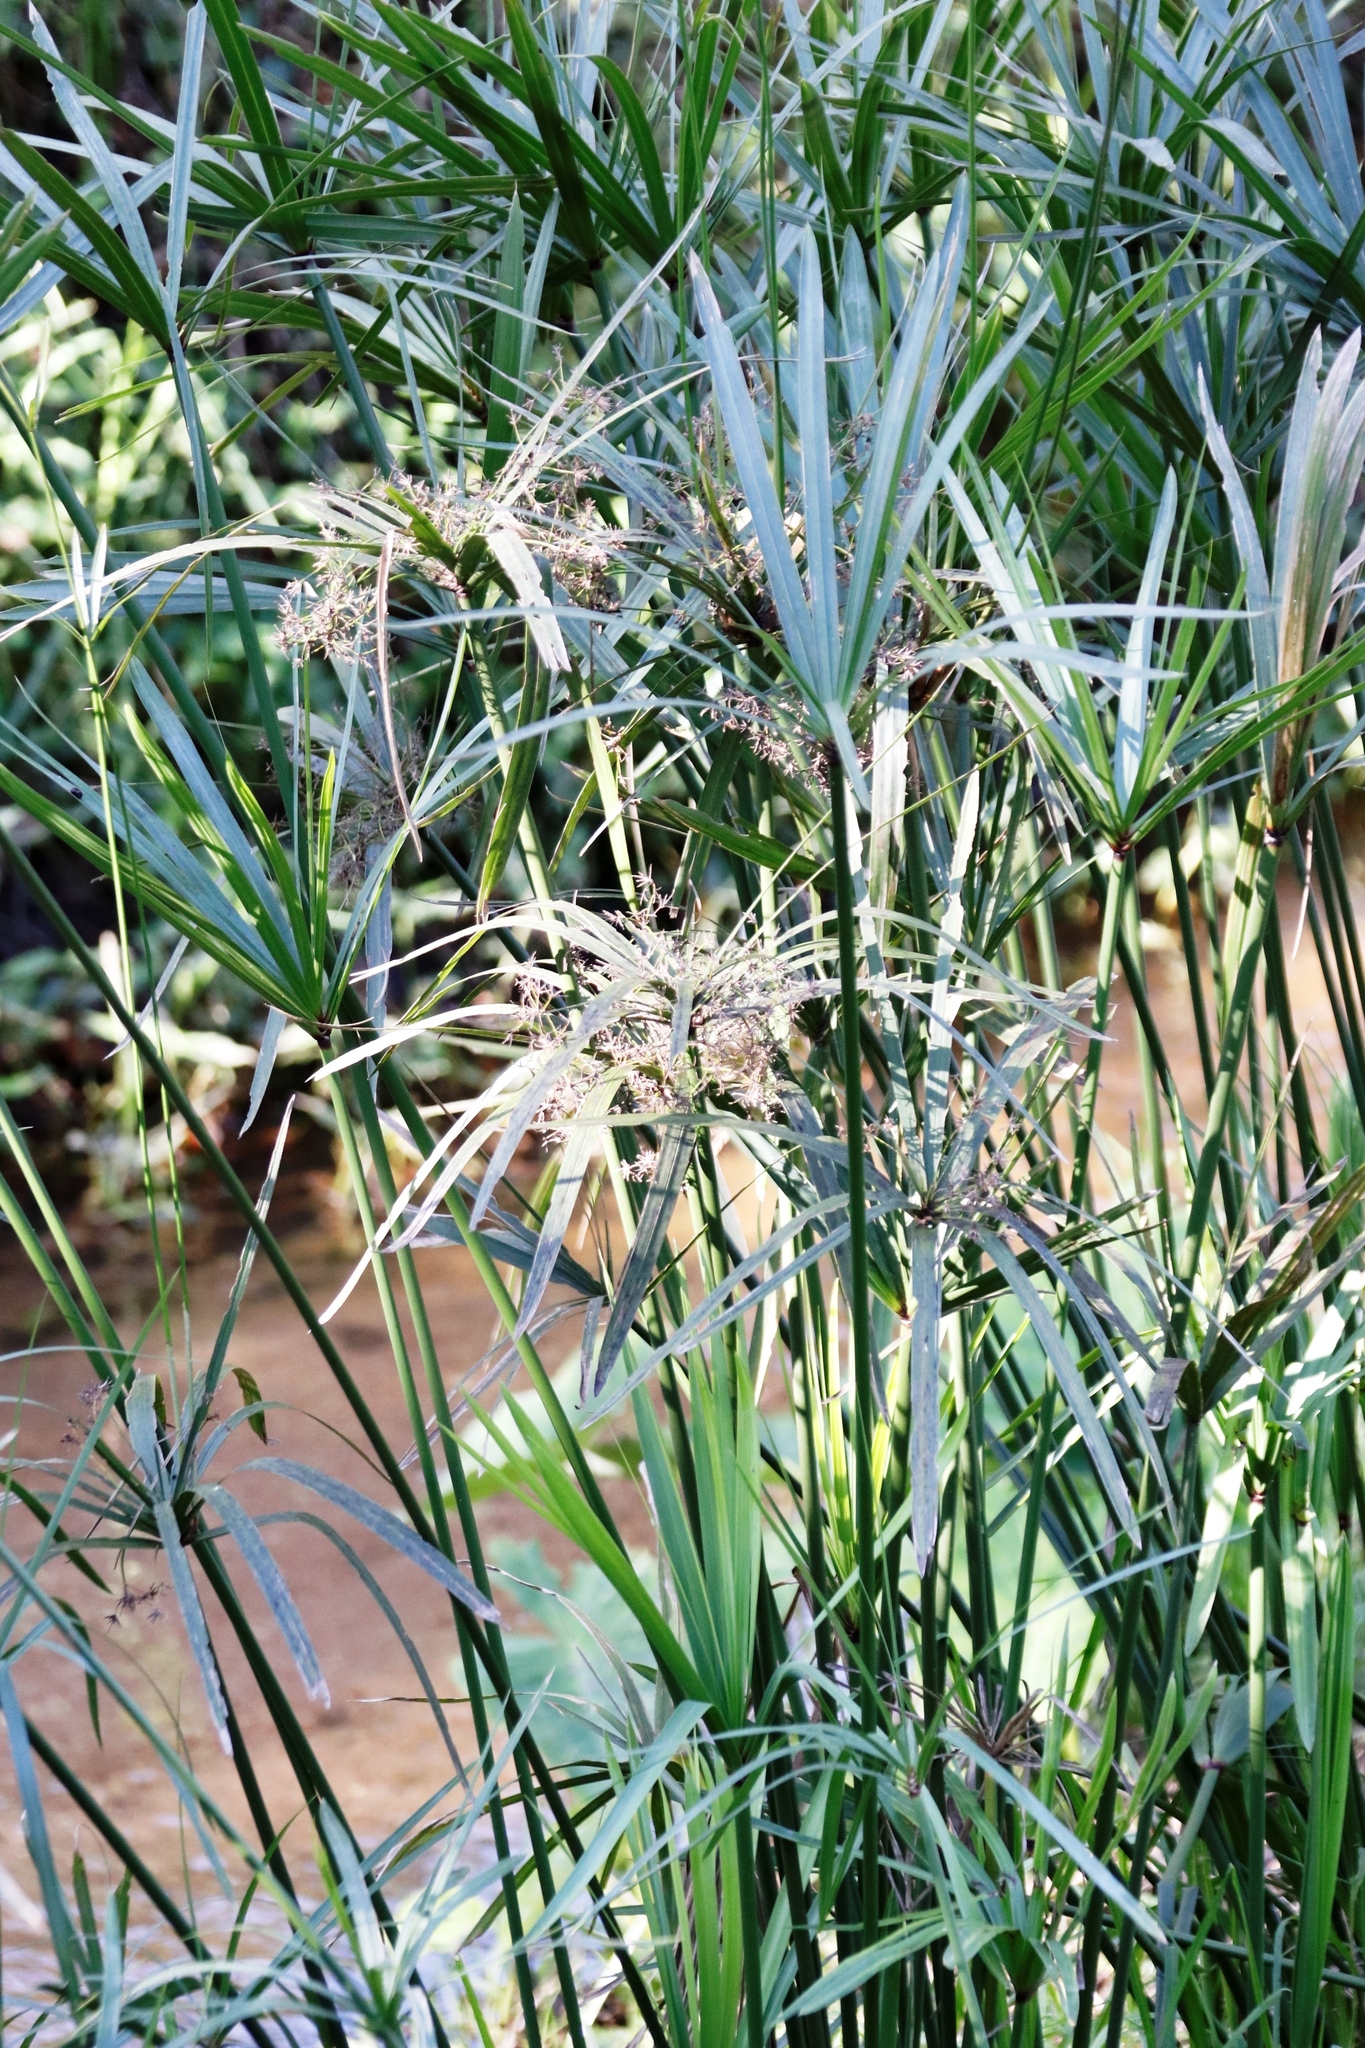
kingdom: Plantae
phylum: Tracheophyta
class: Liliopsida
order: Poales
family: Cyperaceae
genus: Cyperus
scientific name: Cyperus textilis
